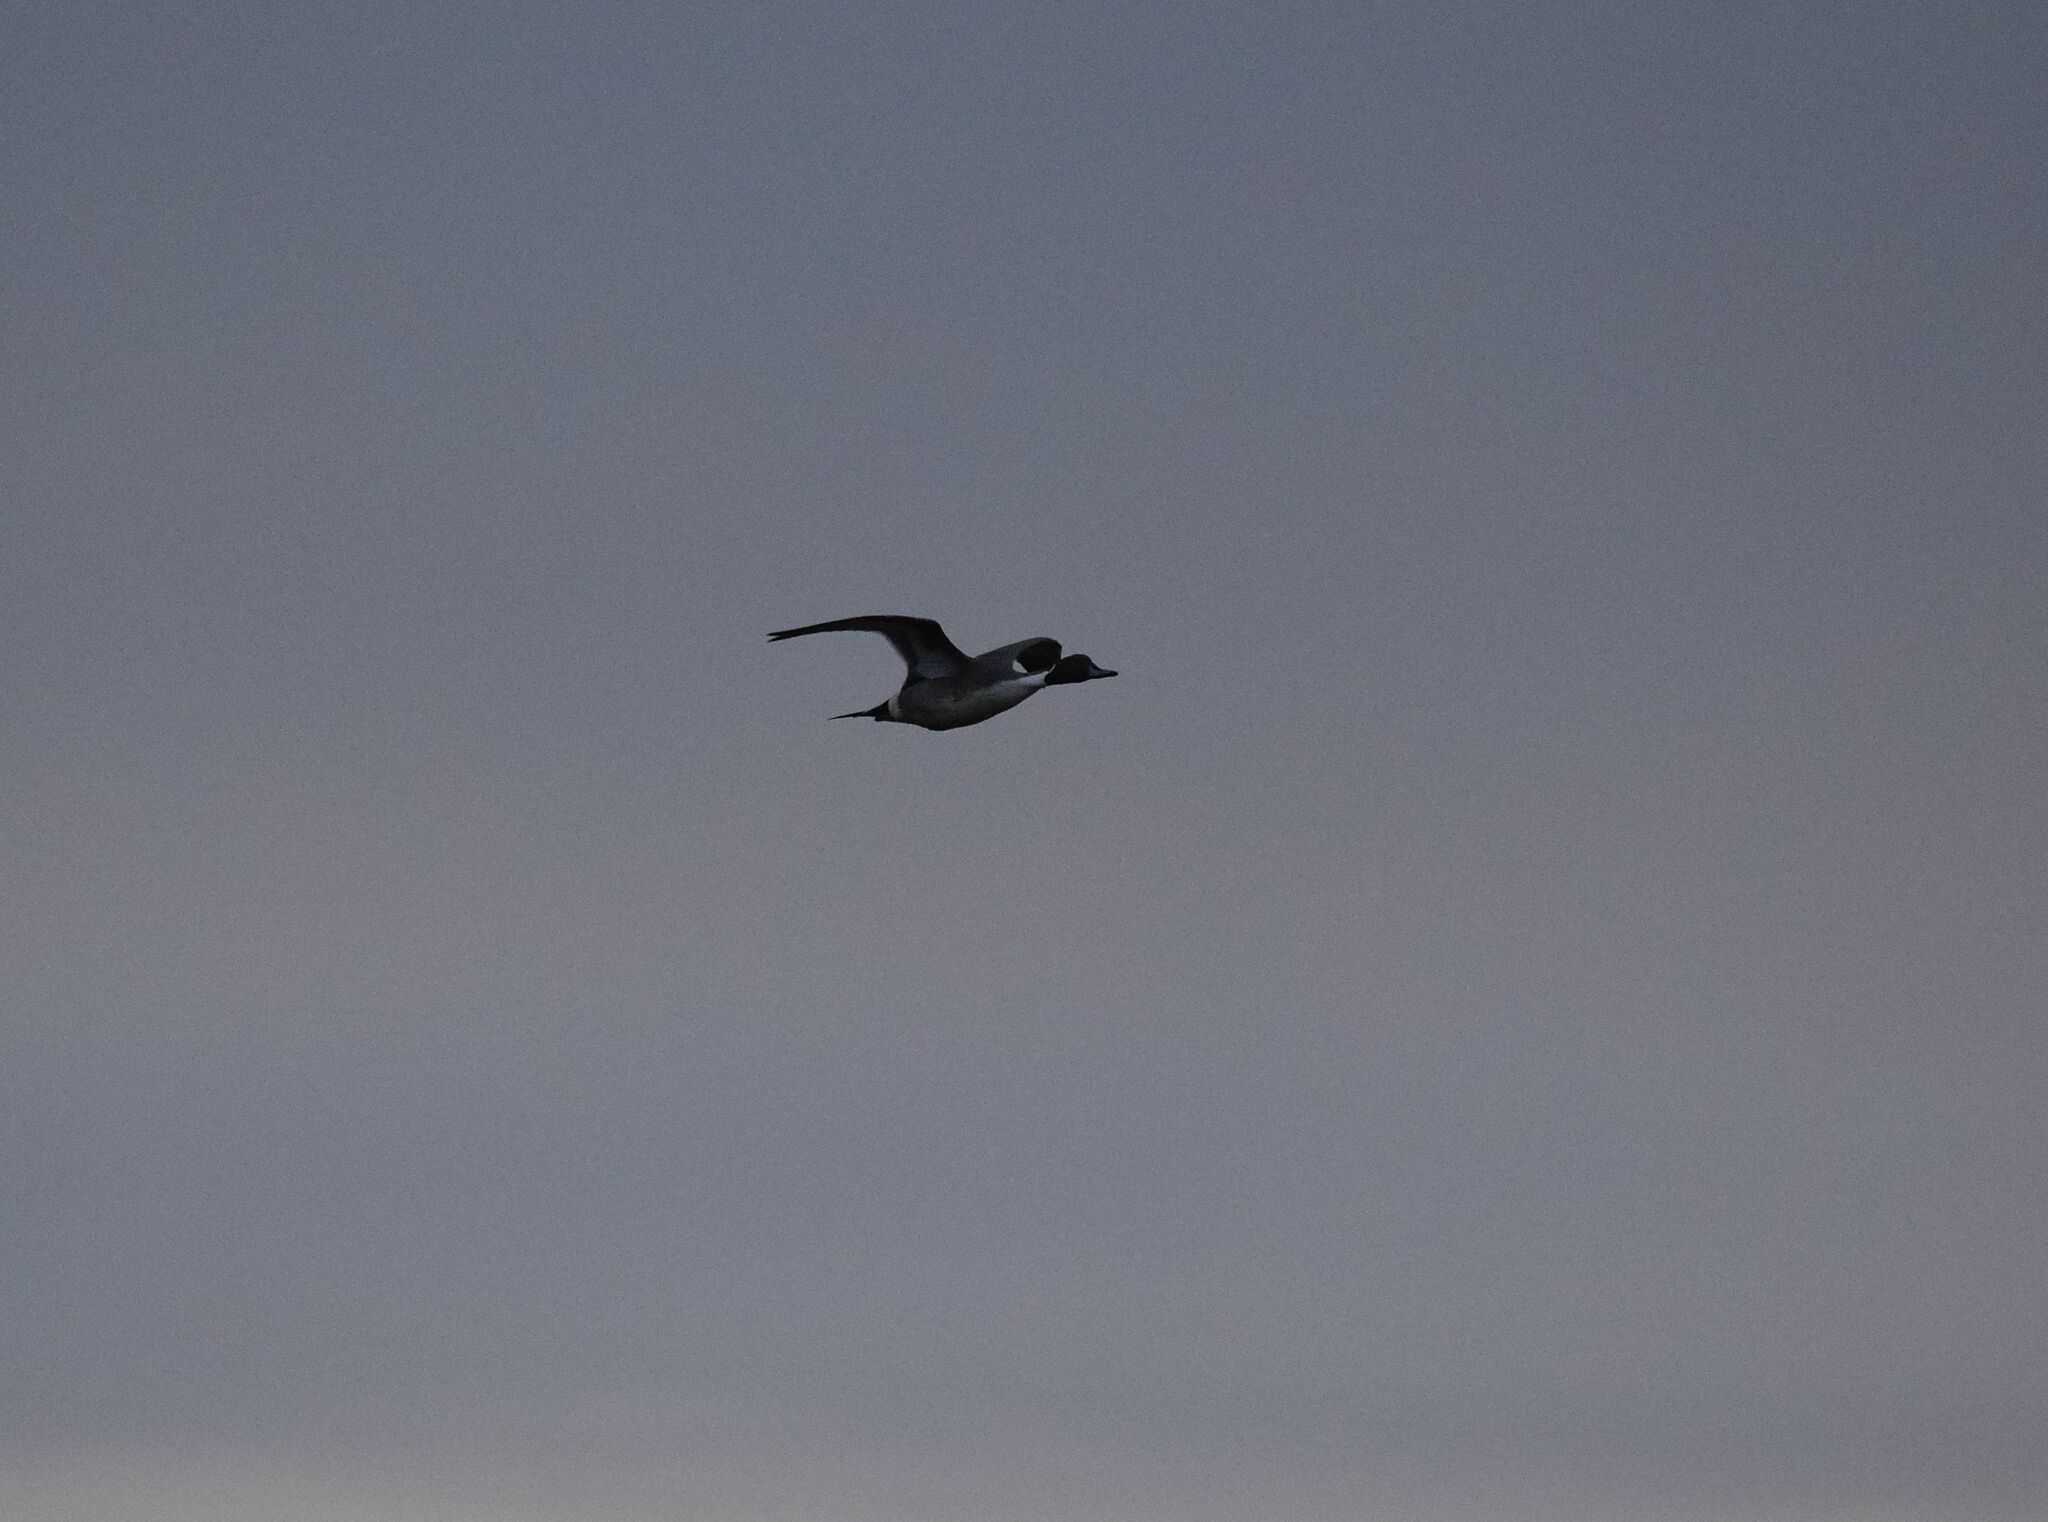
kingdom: Animalia
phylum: Chordata
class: Aves
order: Anseriformes
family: Anatidae
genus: Anas
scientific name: Anas acuta
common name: Northern pintail
